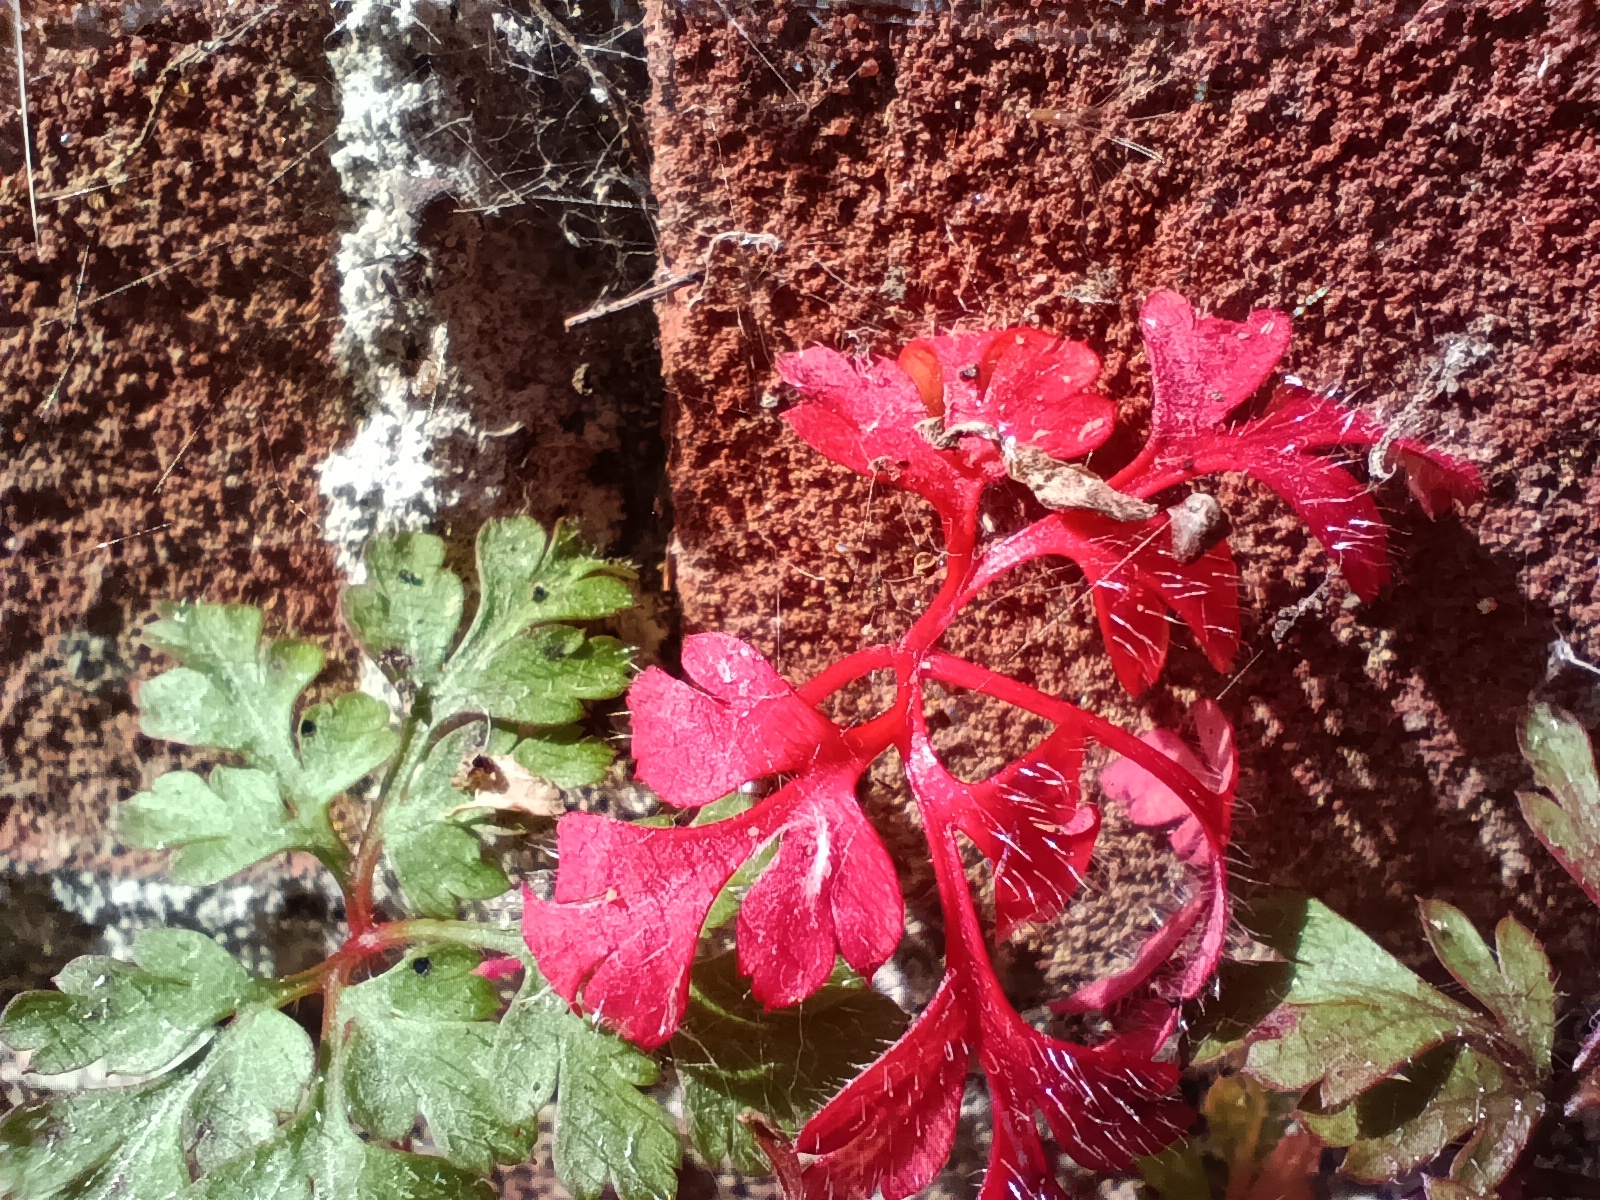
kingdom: Plantae
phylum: Tracheophyta
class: Magnoliopsida
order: Geraniales
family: Geraniaceae
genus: Geranium
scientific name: Geranium robertianum
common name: Herb-robert
